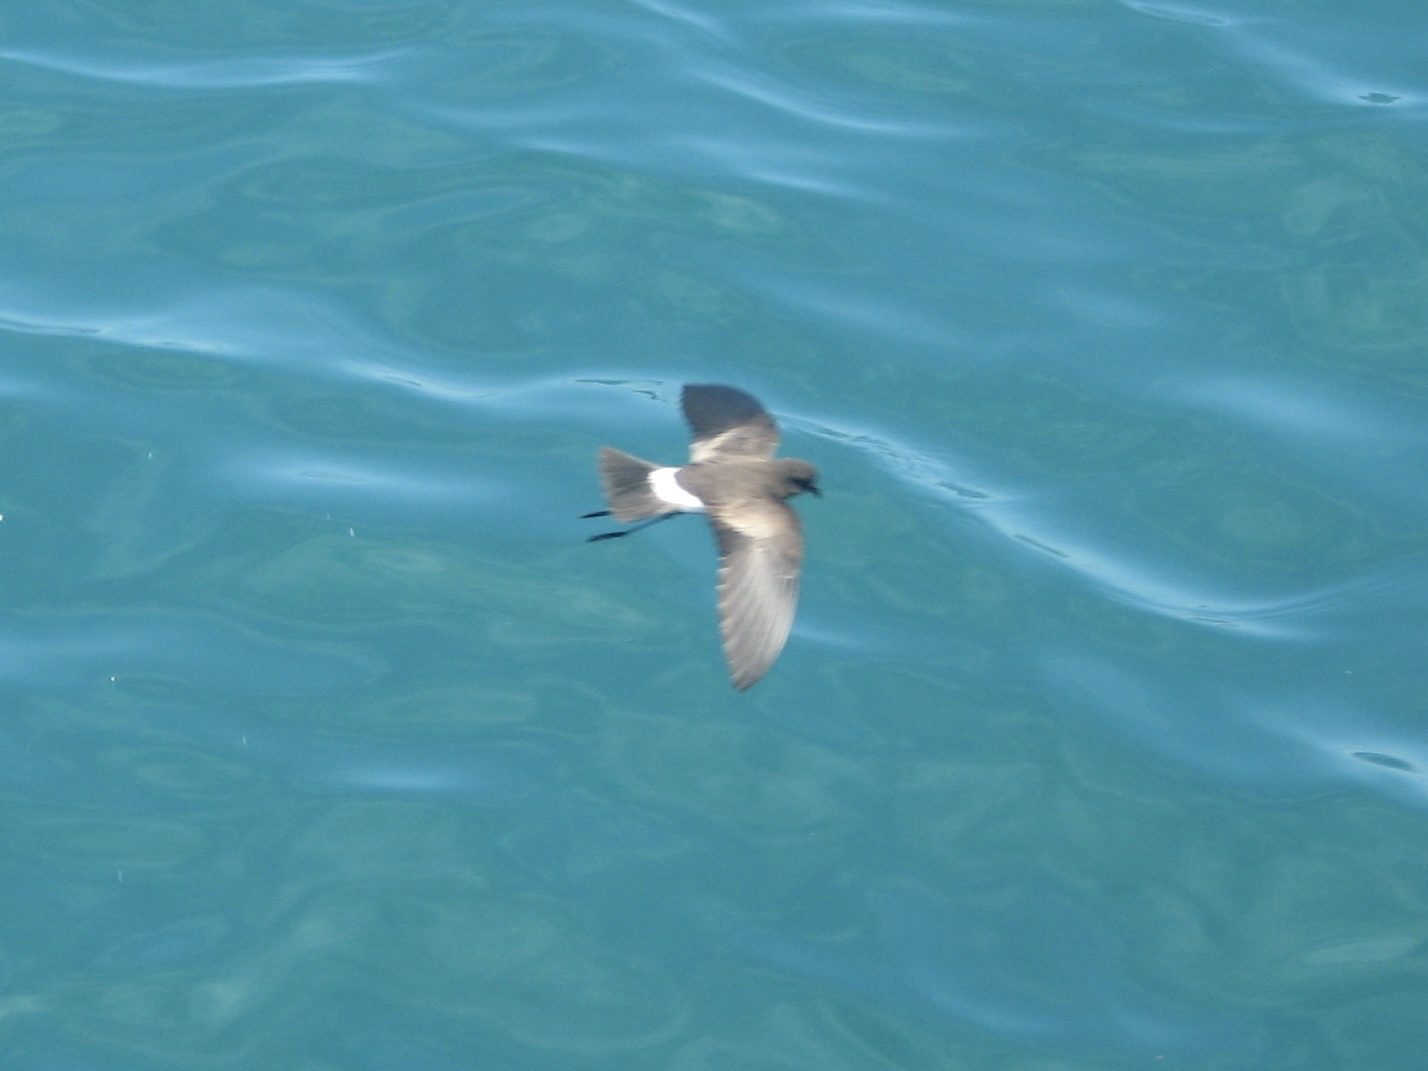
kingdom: Animalia
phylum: Chordata
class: Aves
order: Procellariiformes
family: Hydrobatidae
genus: Oceanites
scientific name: Oceanites gracilis
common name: Elliot's storm-petrel
